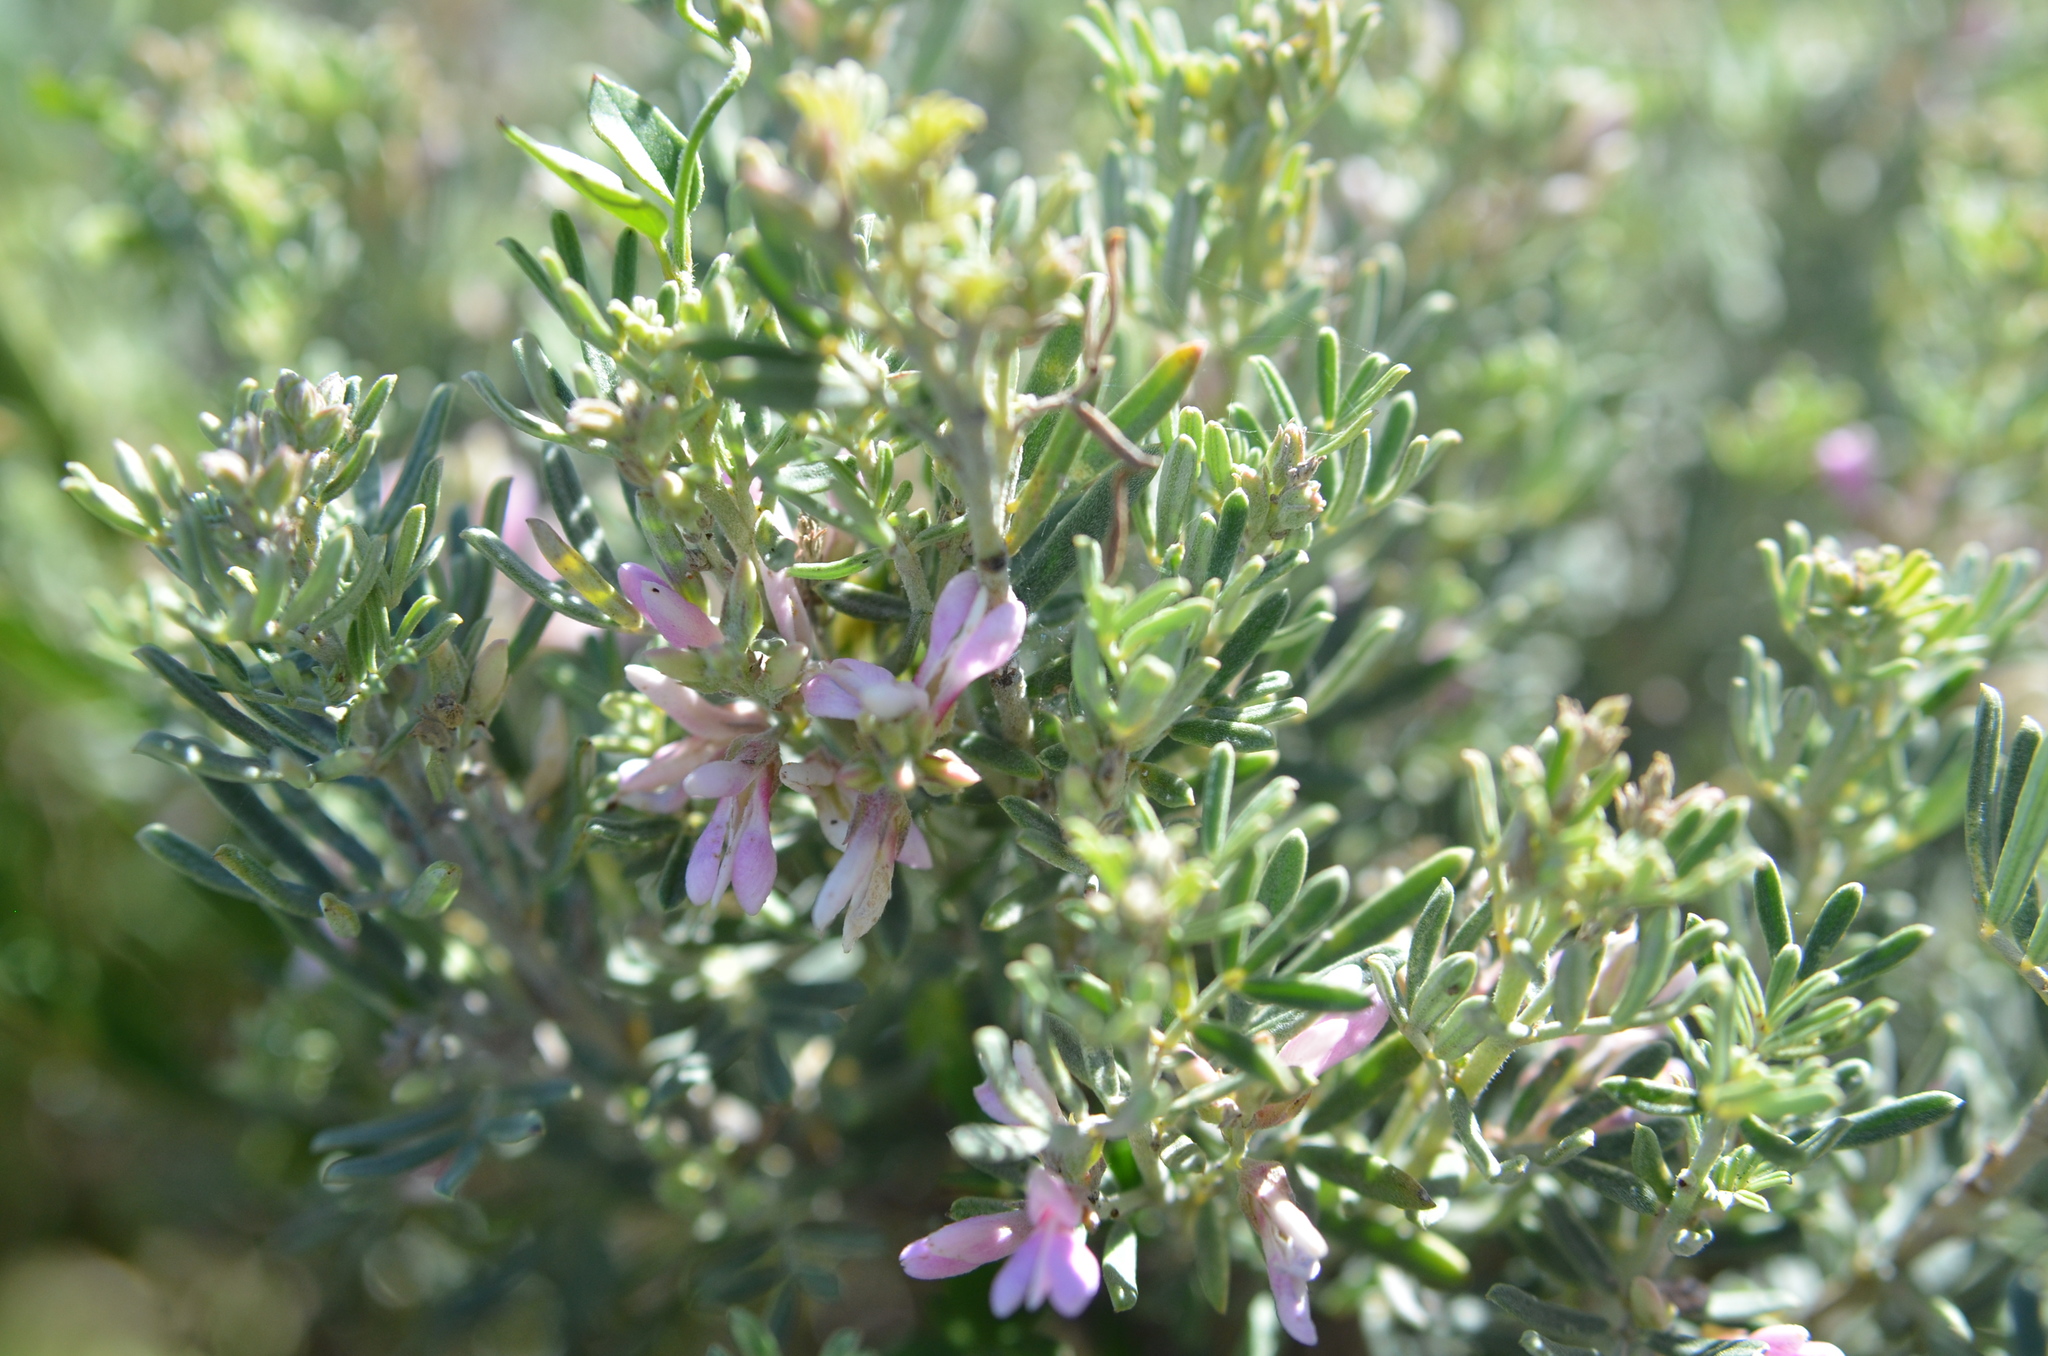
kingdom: Plantae
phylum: Tracheophyta
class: Magnoliopsida
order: Fabales
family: Fabaceae
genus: Indigofera
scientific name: Indigofera brachystachya
